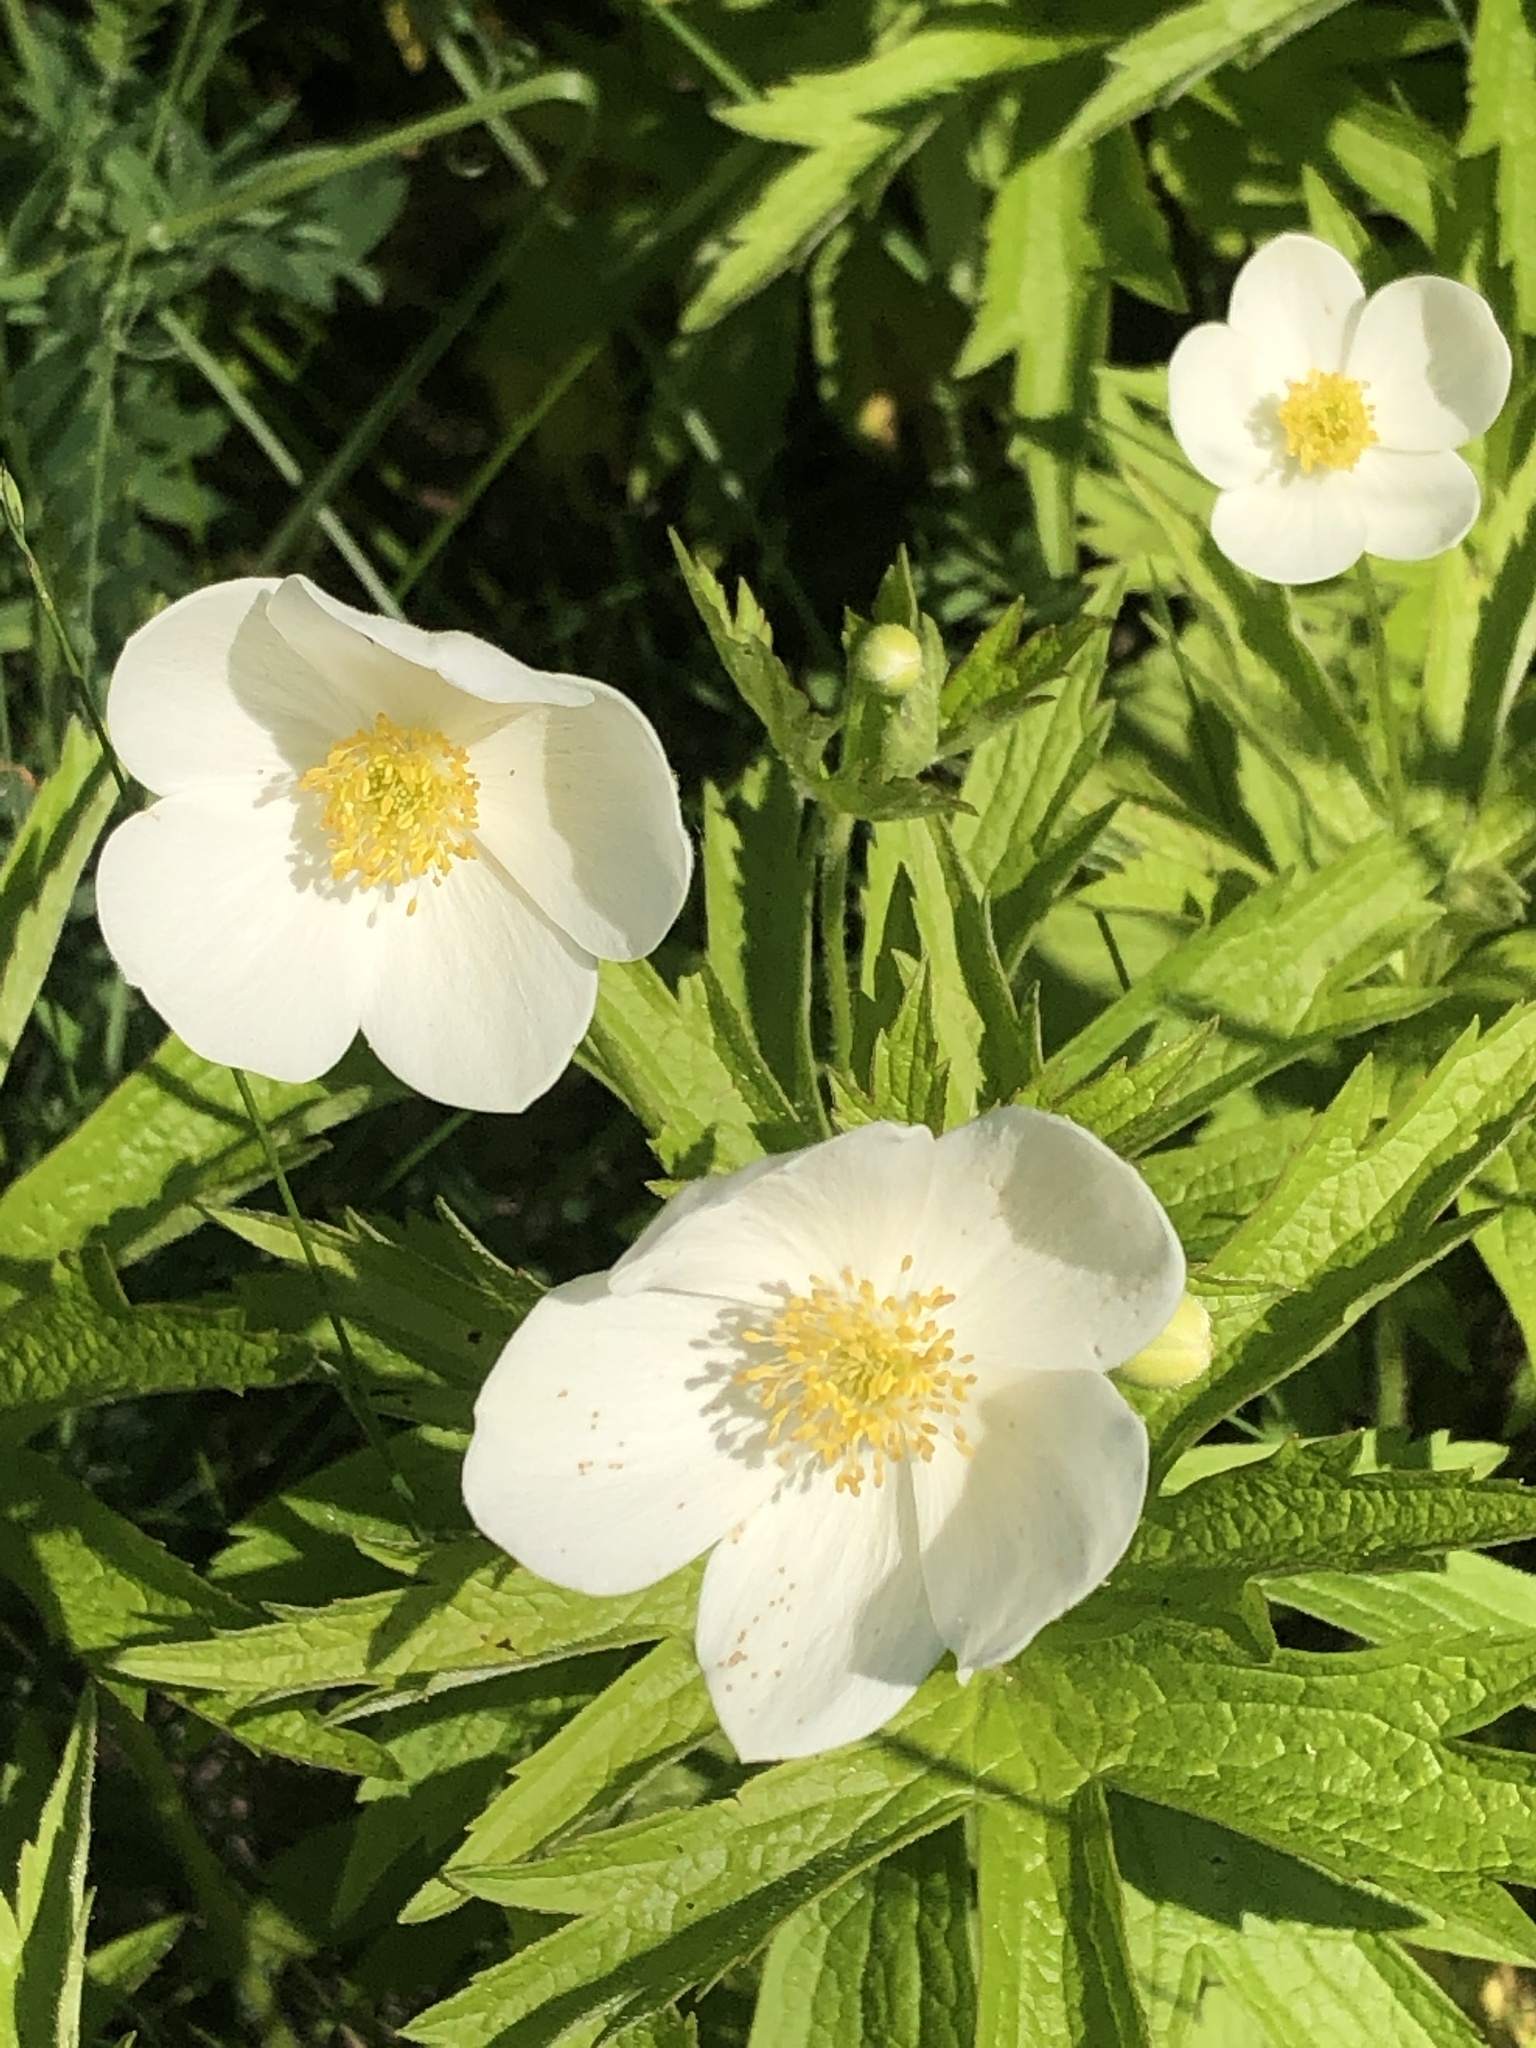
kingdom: Plantae
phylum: Tracheophyta
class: Magnoliopsida
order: Ranunculales
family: Ranunculaceae
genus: Anemonastrum
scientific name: Anemonastrum canadense
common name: Canada anemone
